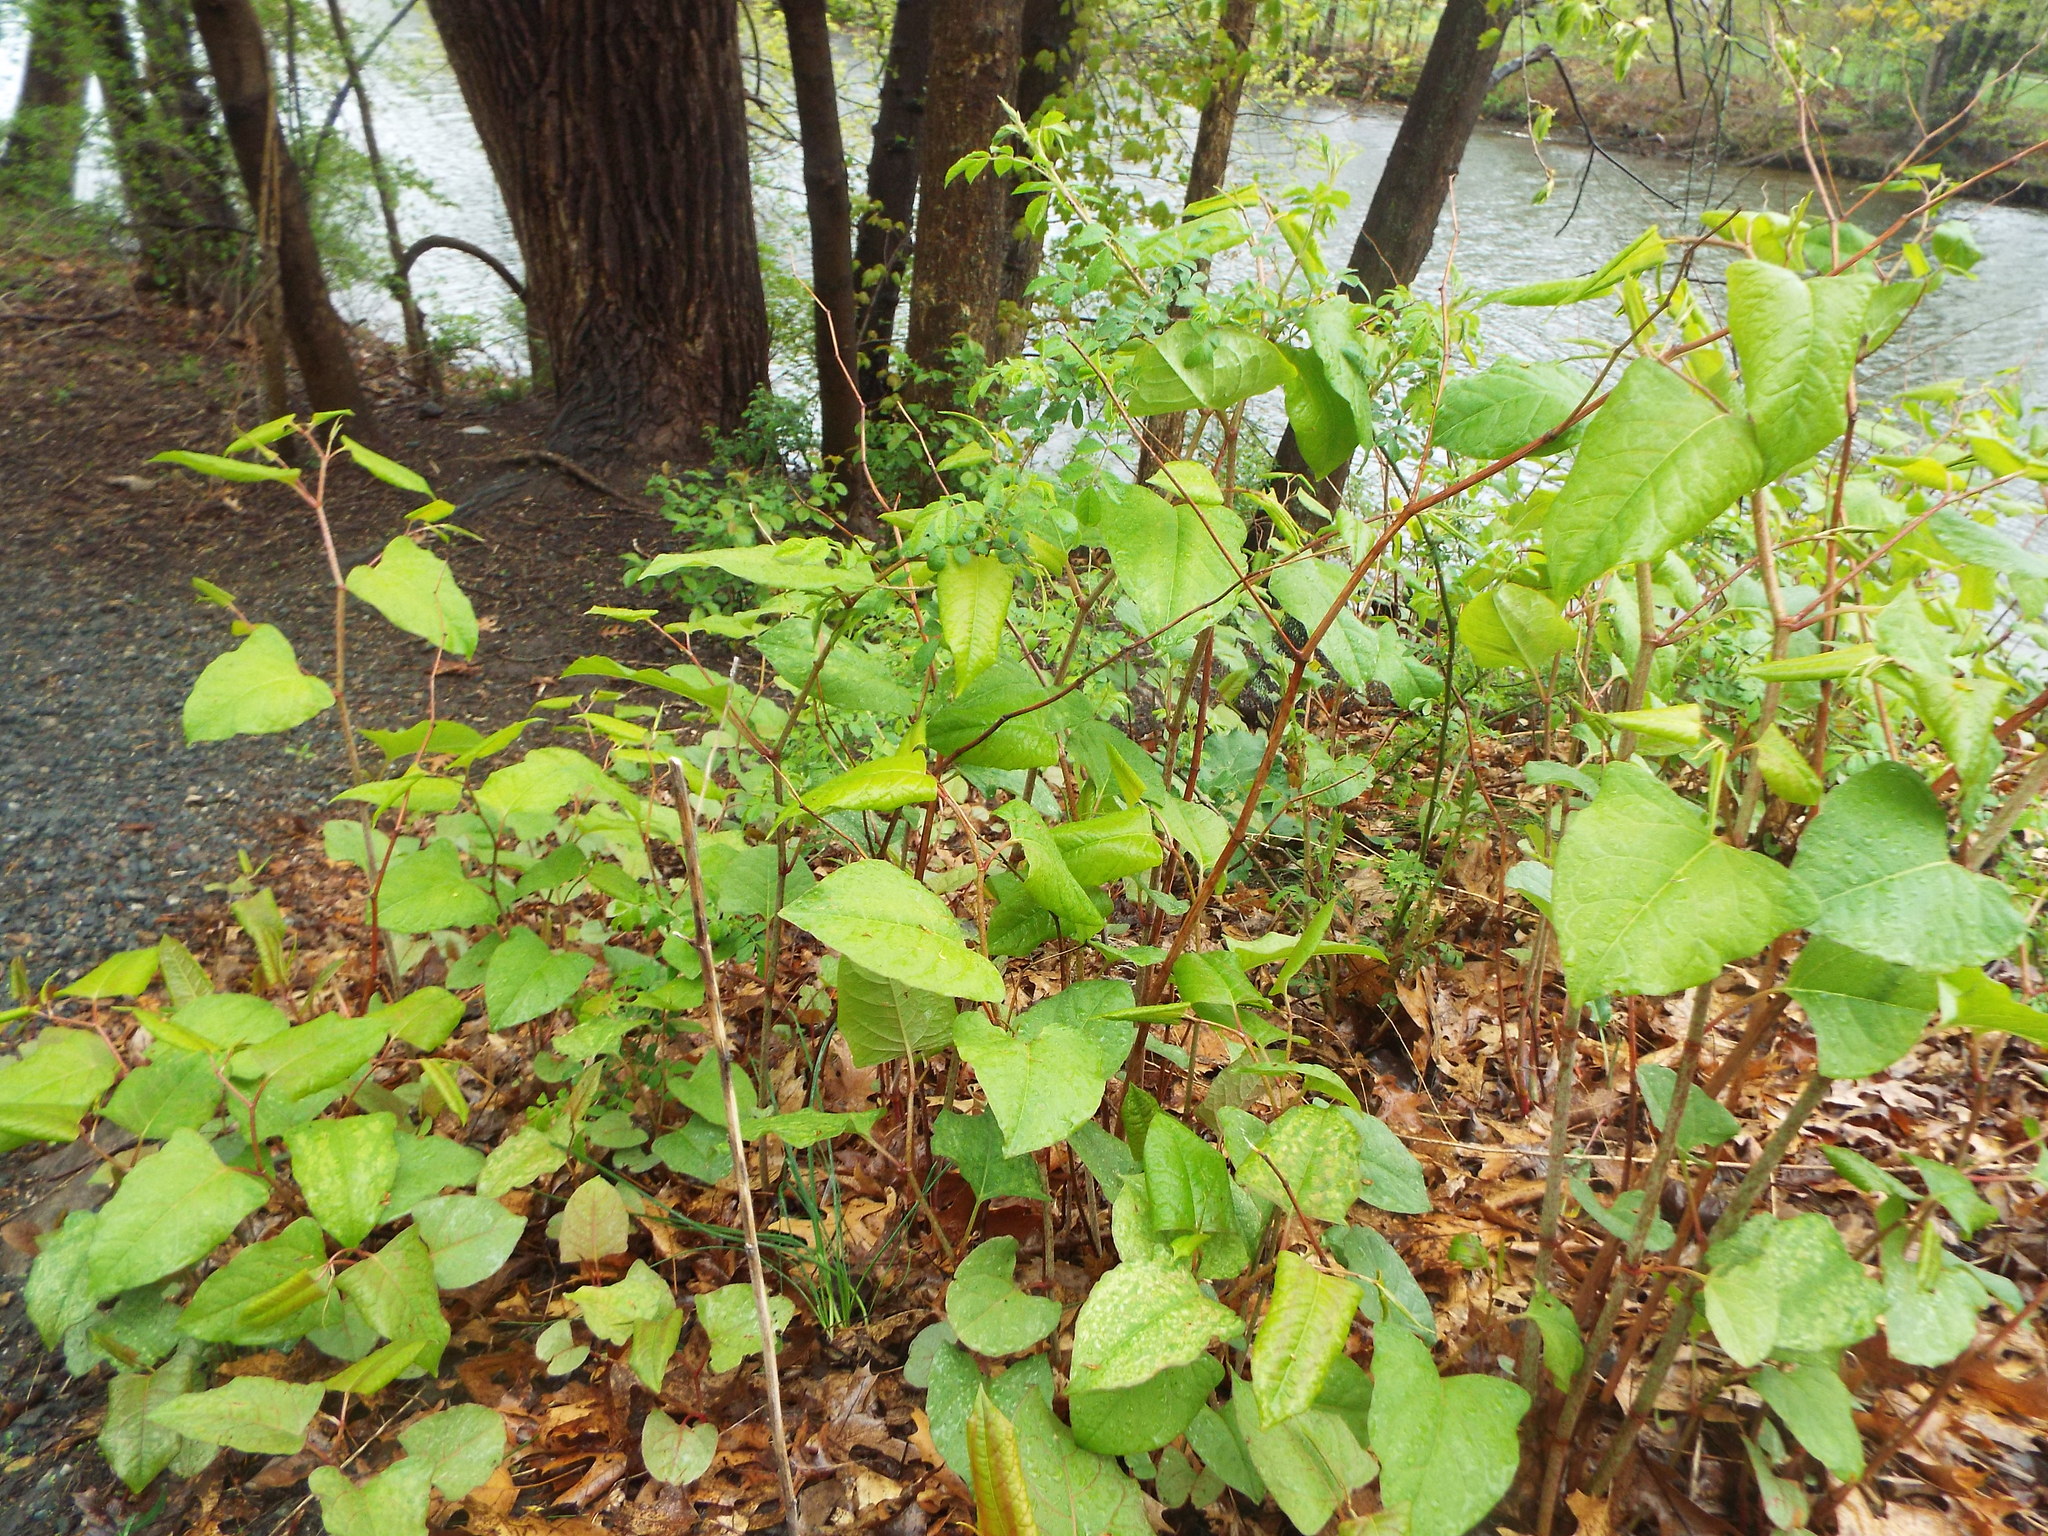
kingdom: Plantae
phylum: Tracheophyta
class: Magnoliopsida
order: Caryophyllales
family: Polygonaceae
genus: Reynoutria
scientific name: Reynoutria japonica
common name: Japanese knotweed
